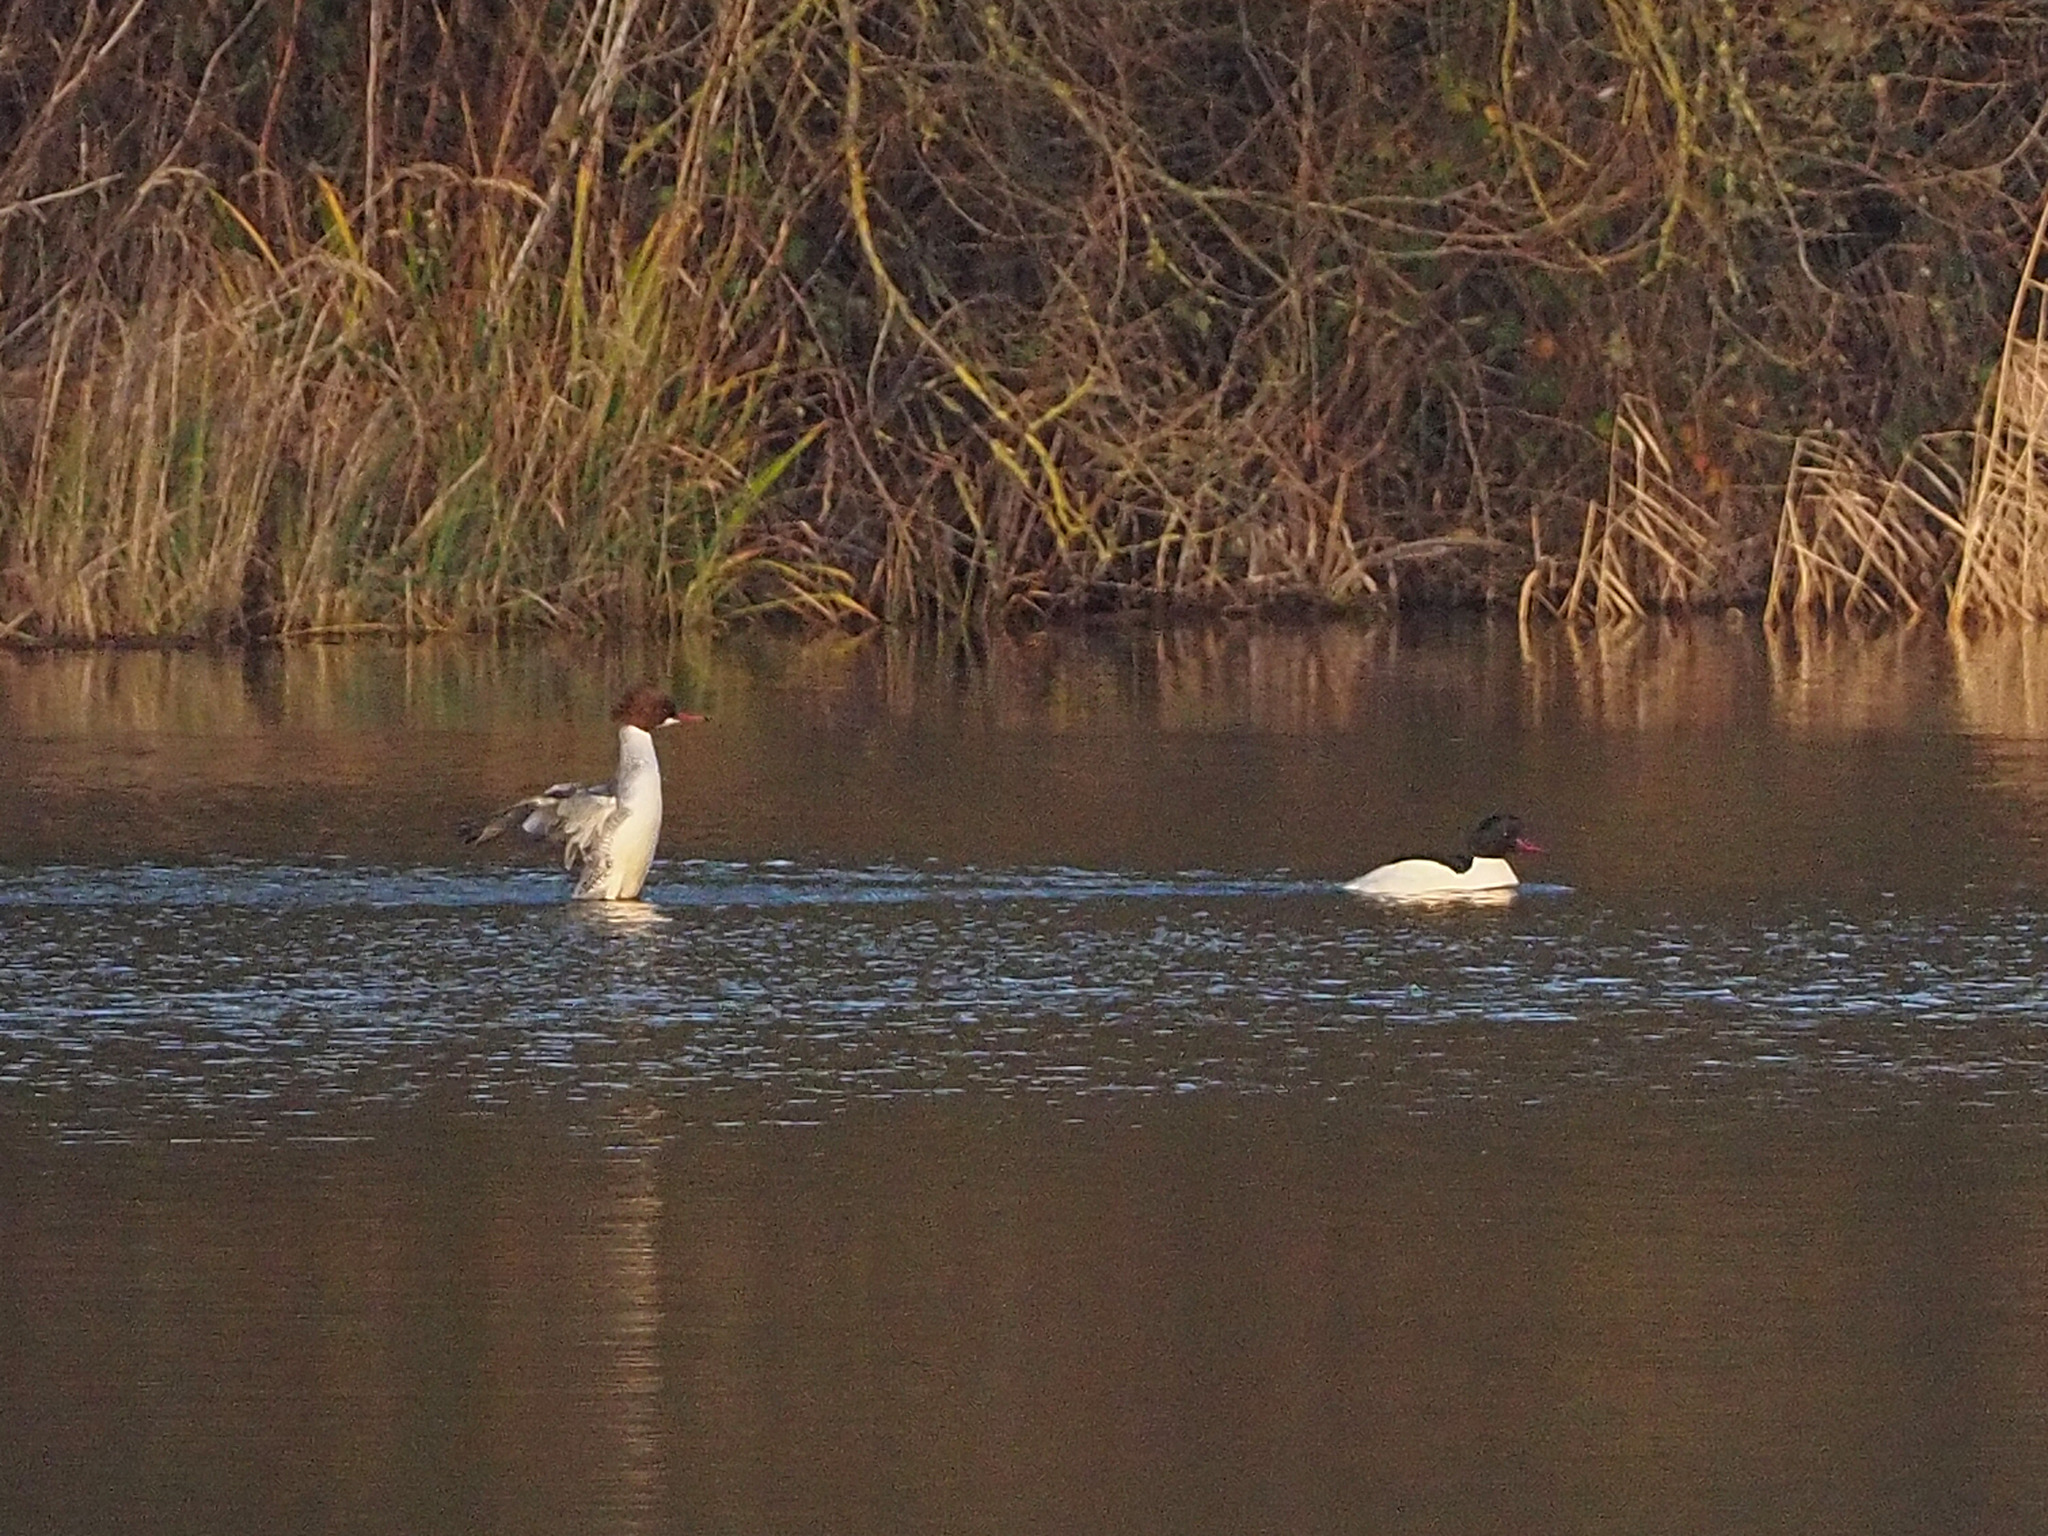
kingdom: Animalia
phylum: Chordata
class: Aves
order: Anseriformes
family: Anatidae
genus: Mergus
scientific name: Mergus merganser
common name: Common merganser
